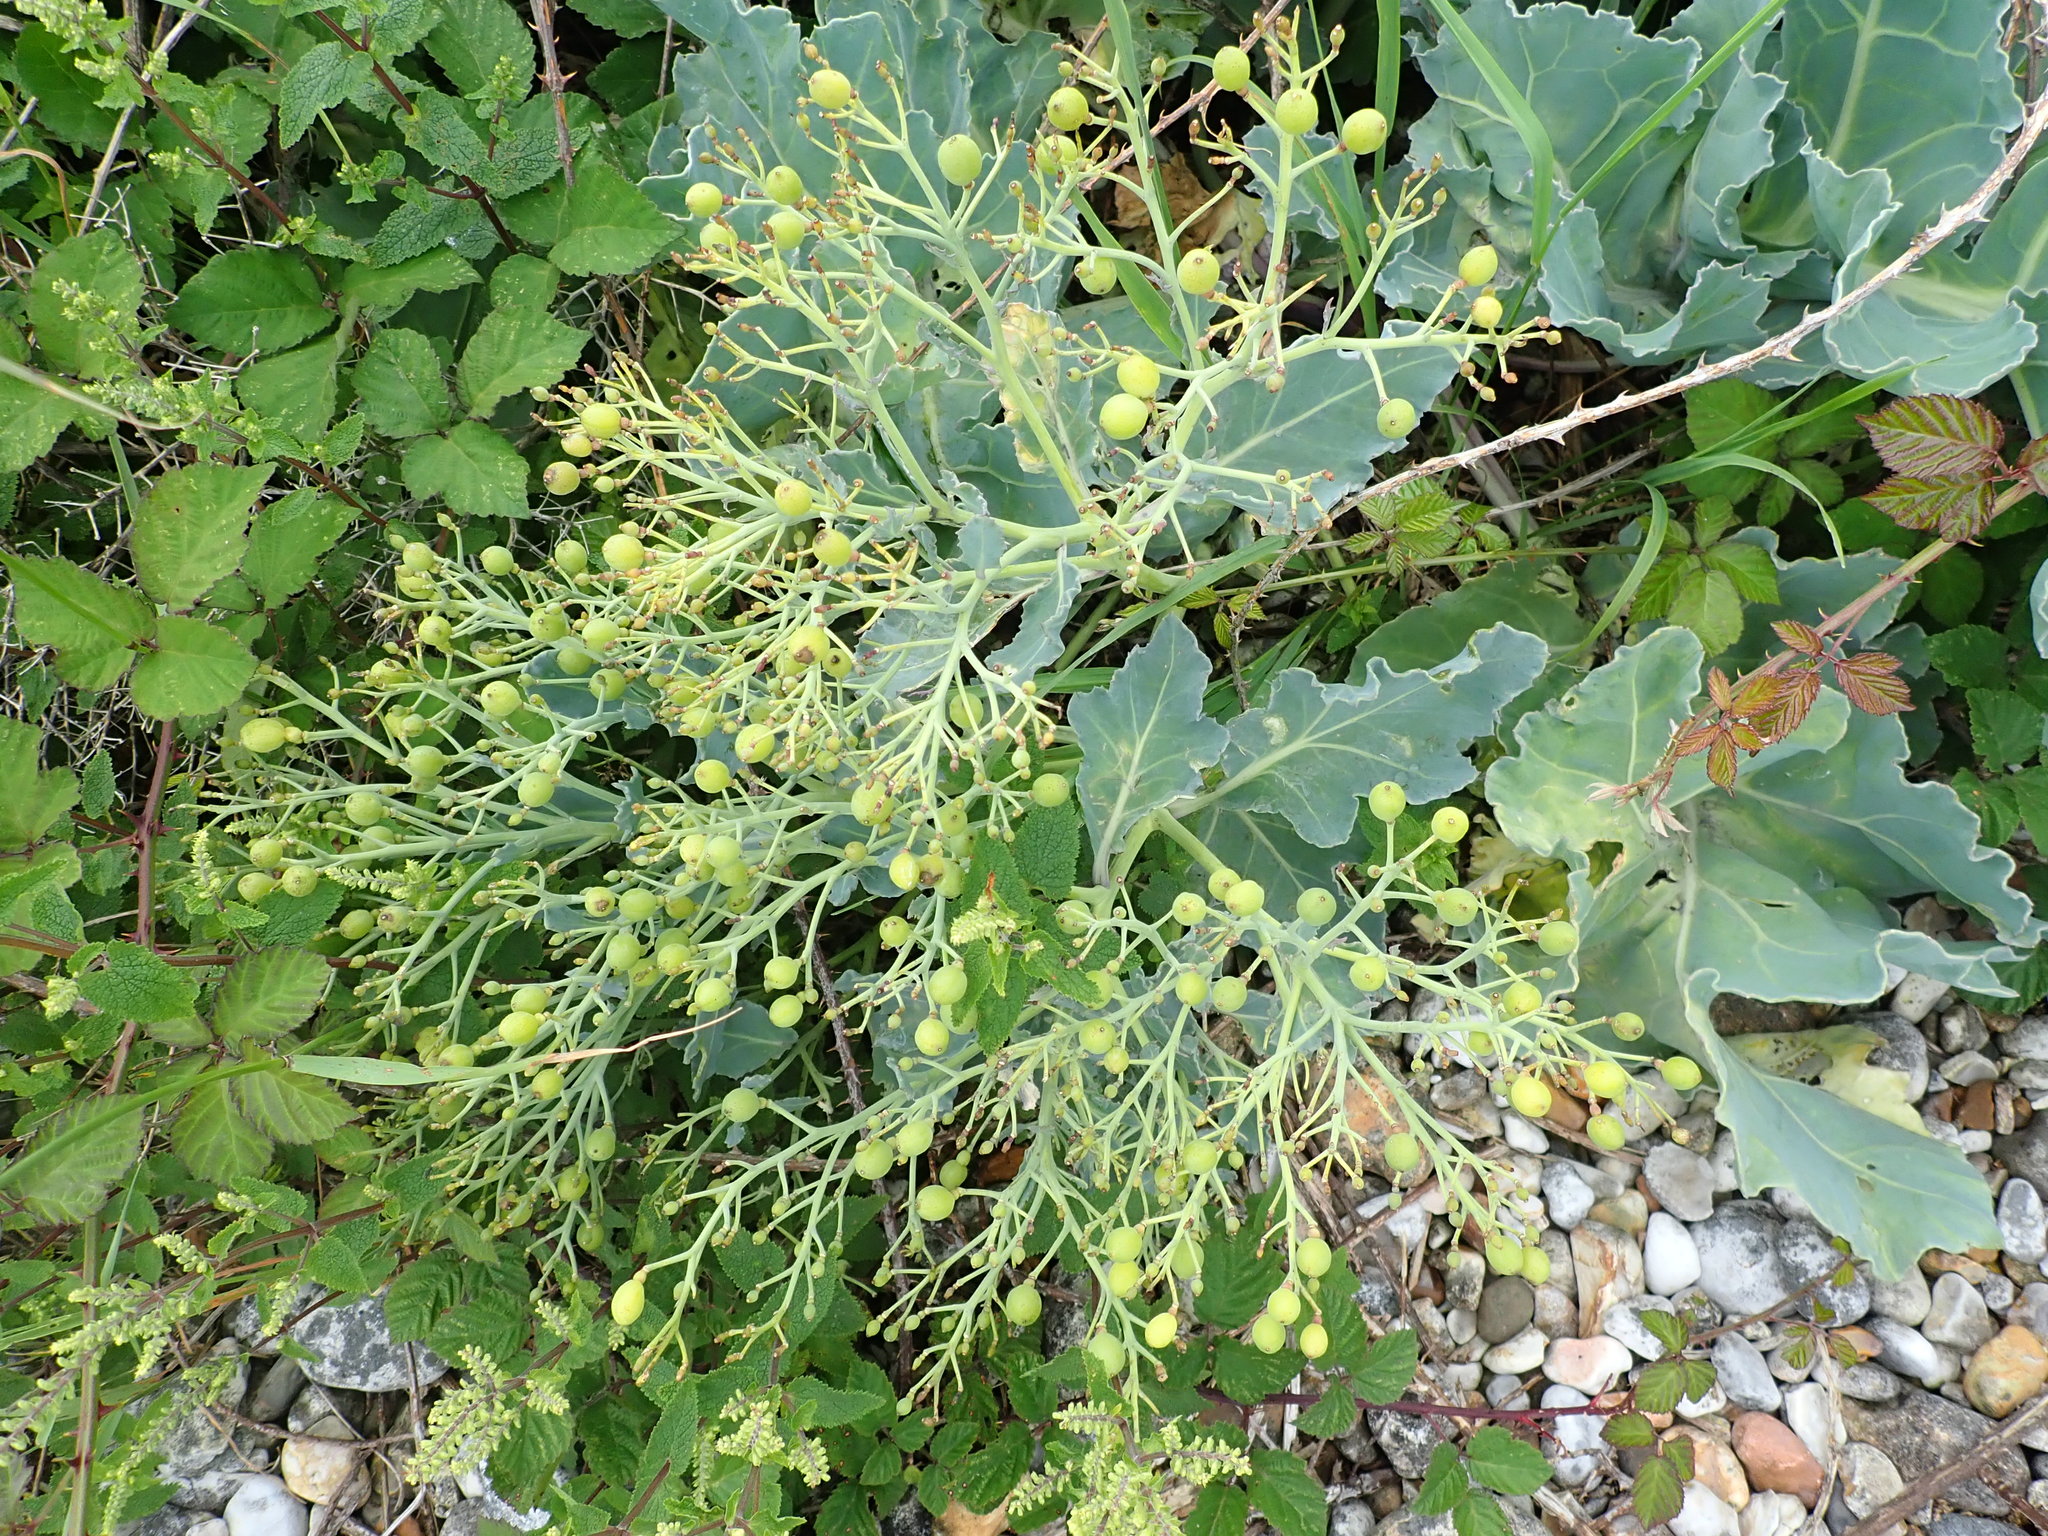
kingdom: Plantae
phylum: Tracheophyta
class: Magnoliopsida
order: Brassicales
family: Brassicaceae
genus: Crambe
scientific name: Crambe maritima
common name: Sea-kale
